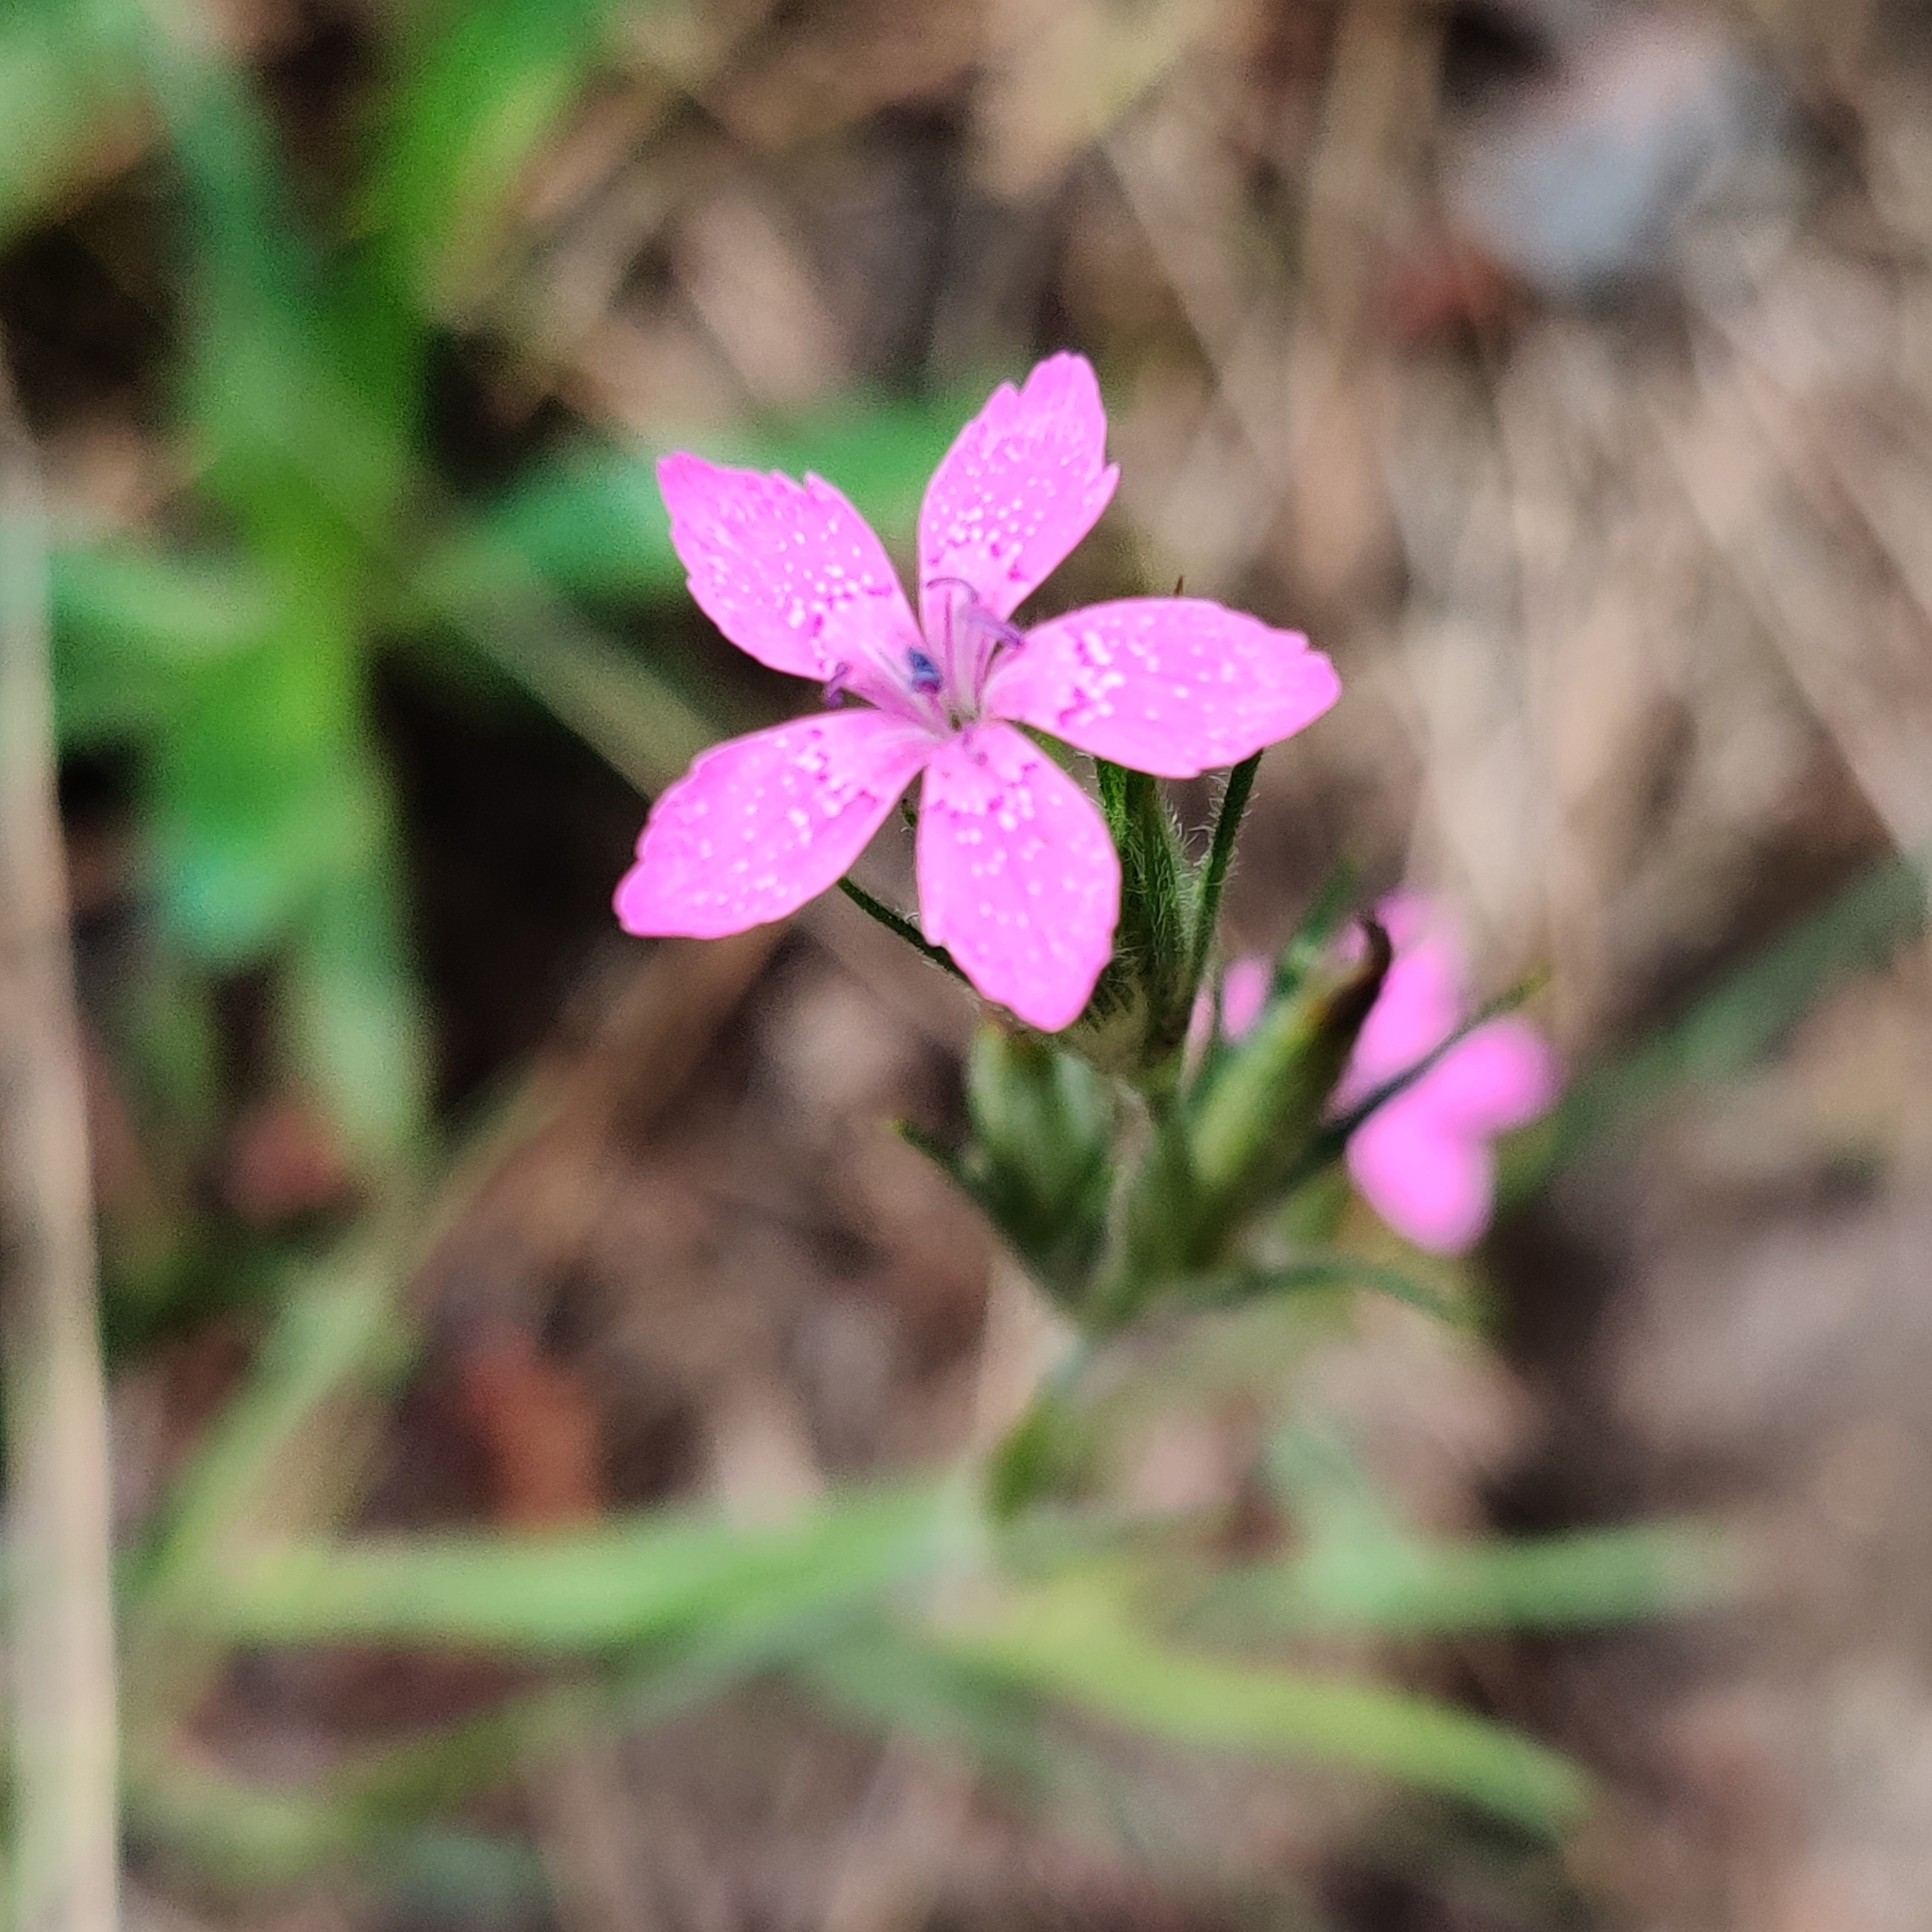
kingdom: Plantae
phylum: Tracheophyta
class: Magnoliopsida
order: Caryophyllales
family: Caryophyllaceae
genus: Dianthus
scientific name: Dianthus armeria
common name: Deptford pink
